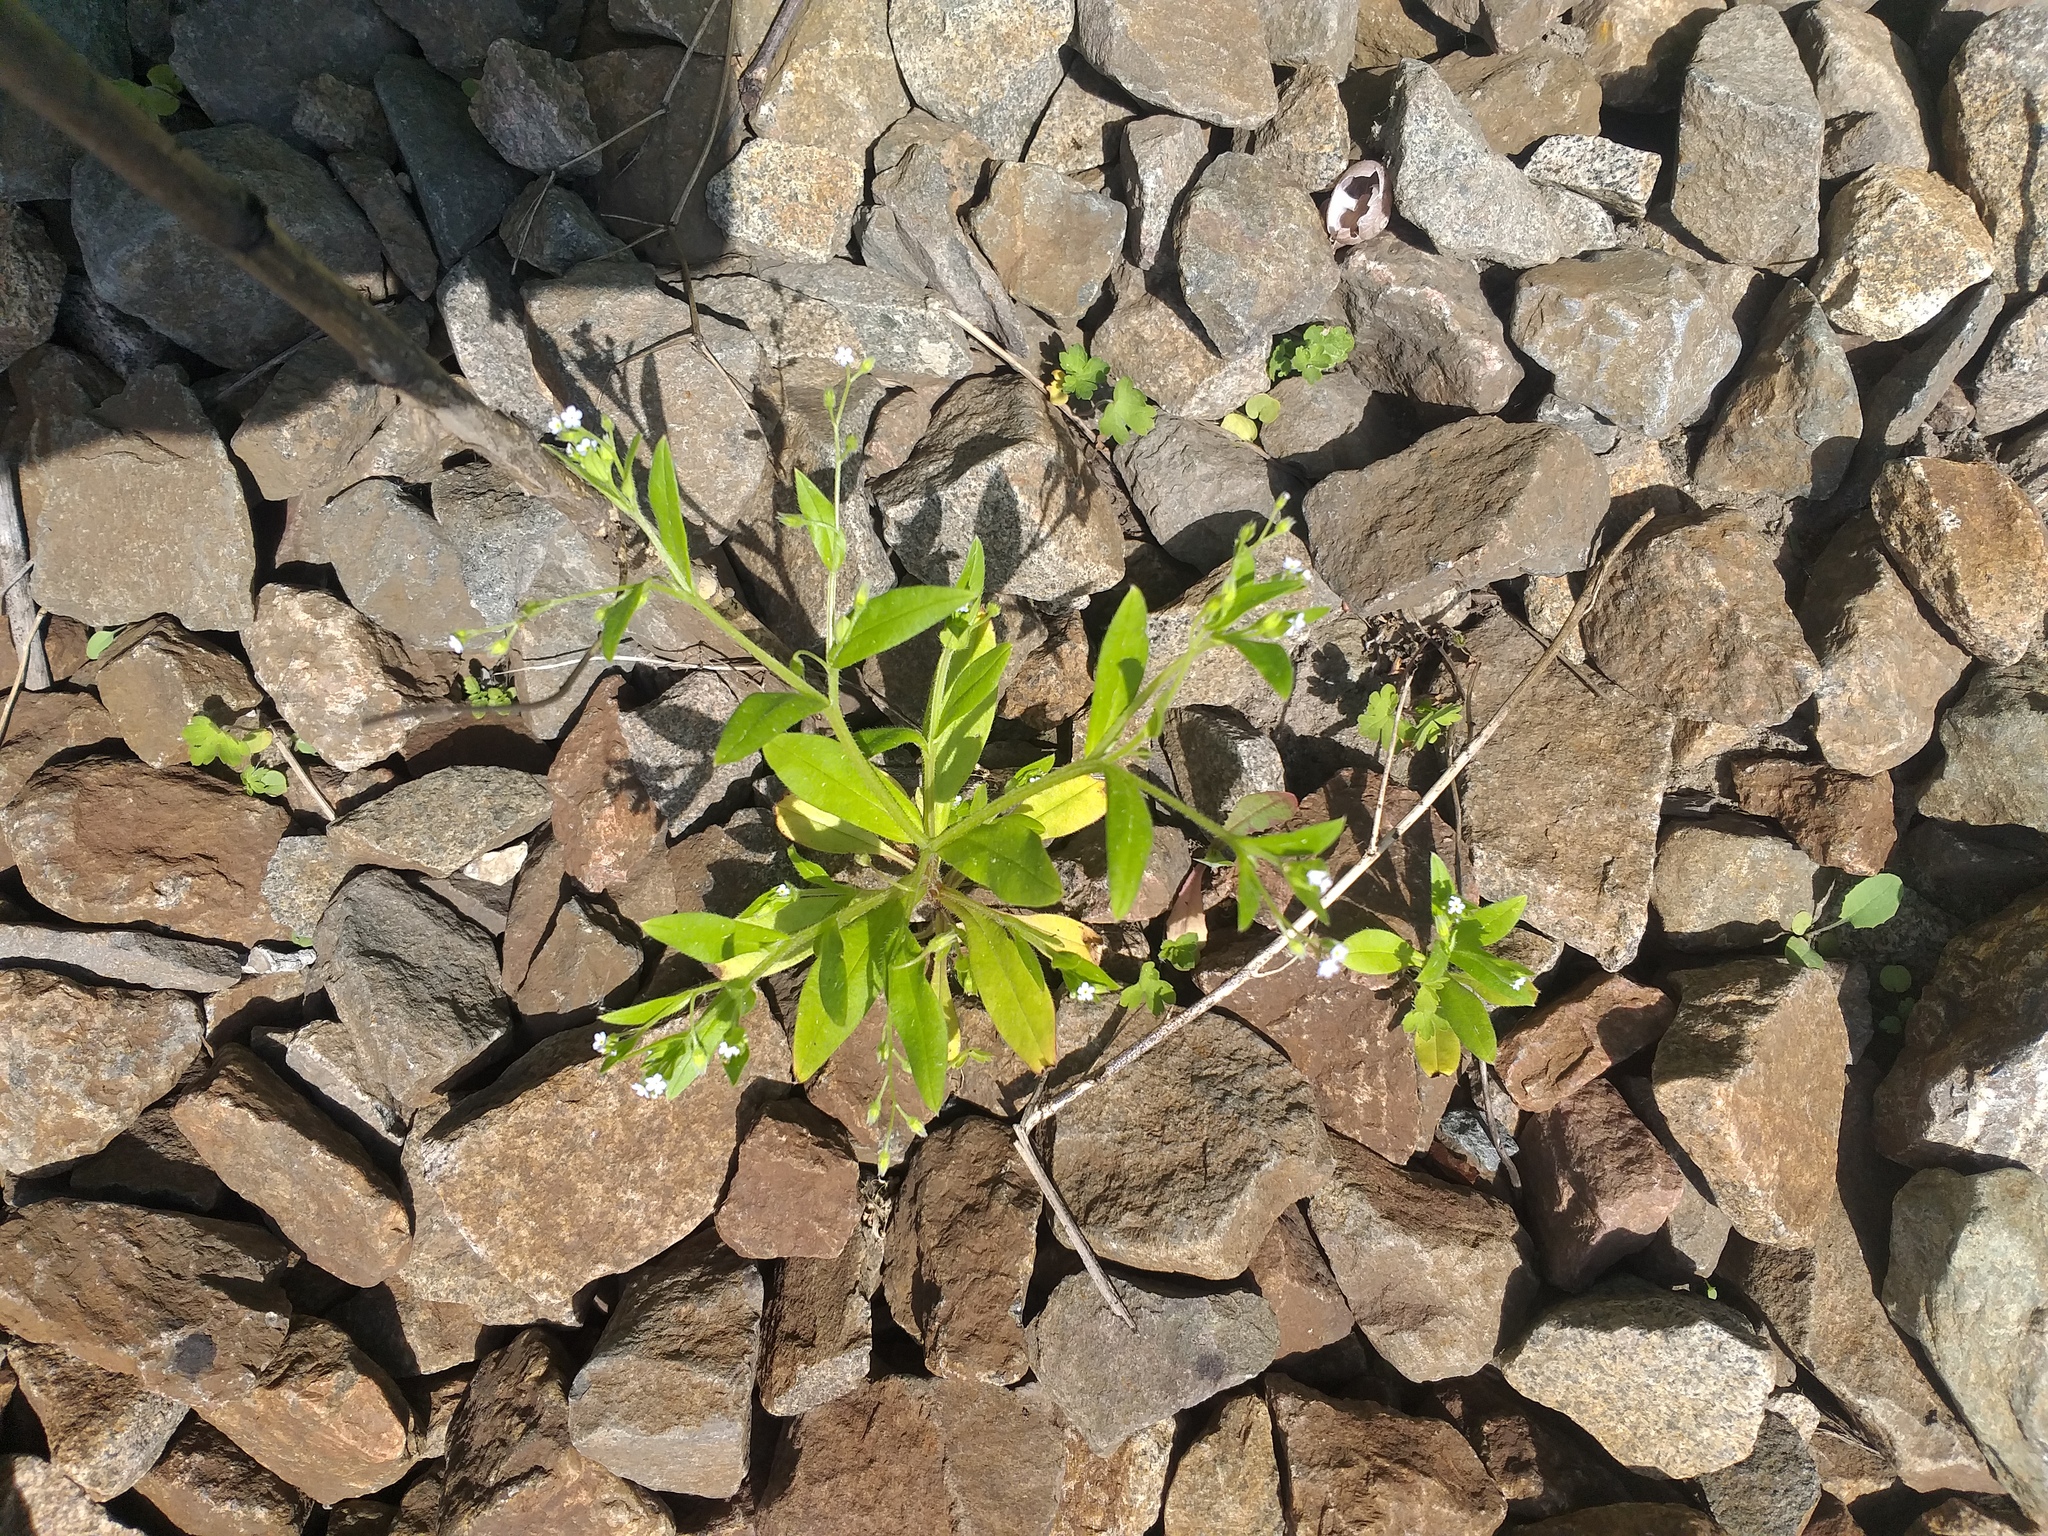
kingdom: Plantae
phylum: Tracheophyta
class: Magnoliopsida
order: Boraginales
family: Boraginaceae
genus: Myosotis
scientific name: Myosotis sparsiflora
